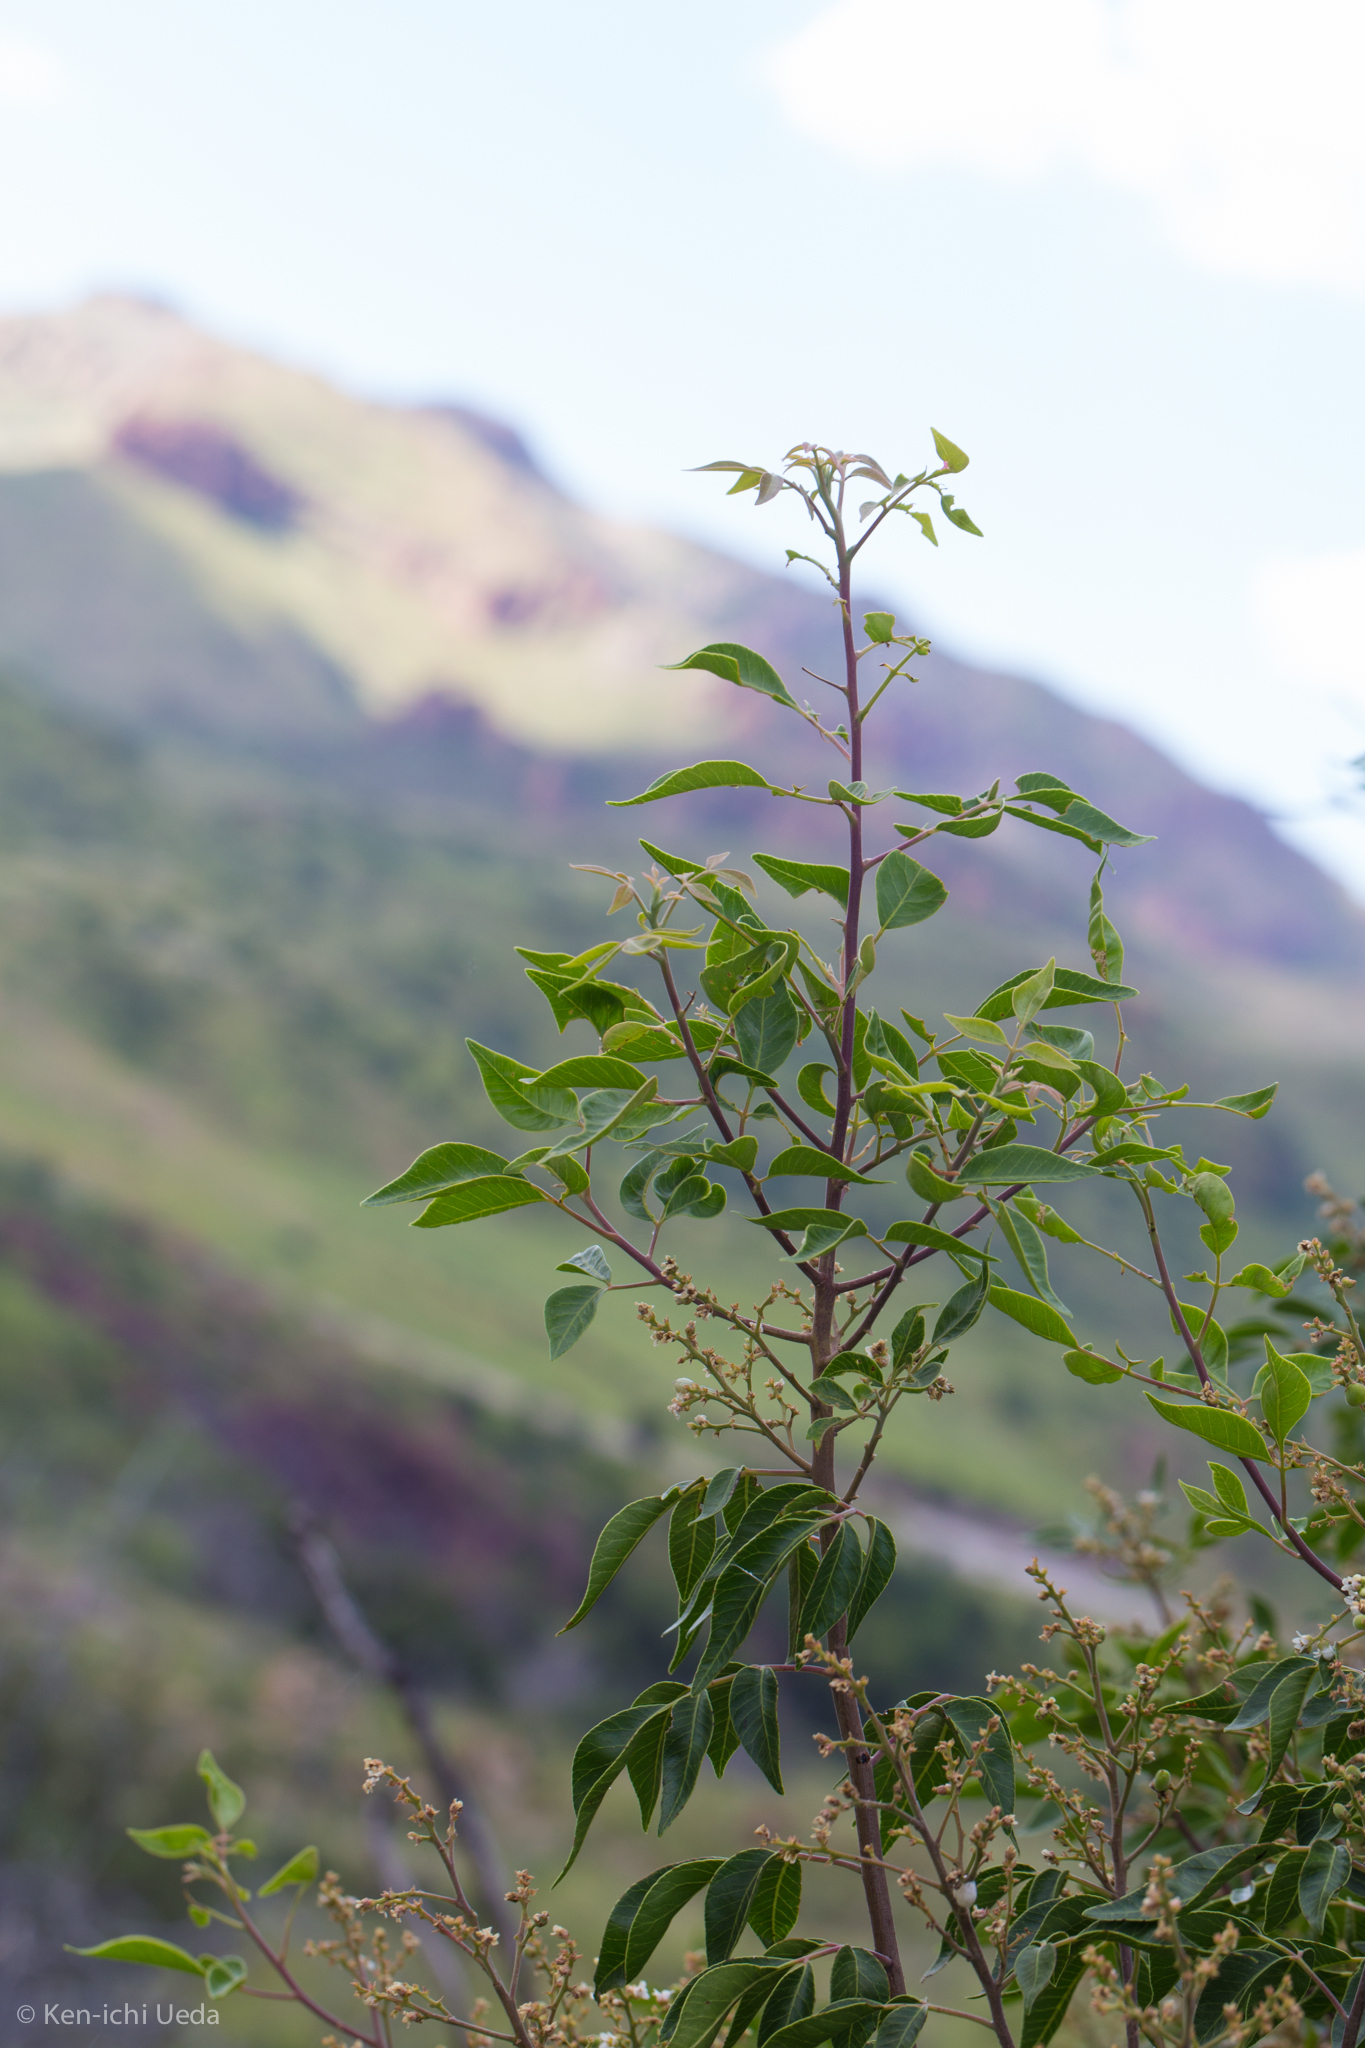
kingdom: Plantae
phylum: Tracheophyta
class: Magnoliopsida
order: Sapindales
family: Anacardiaceae
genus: Rhus
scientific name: Rhus virens
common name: Evergreen sumac
